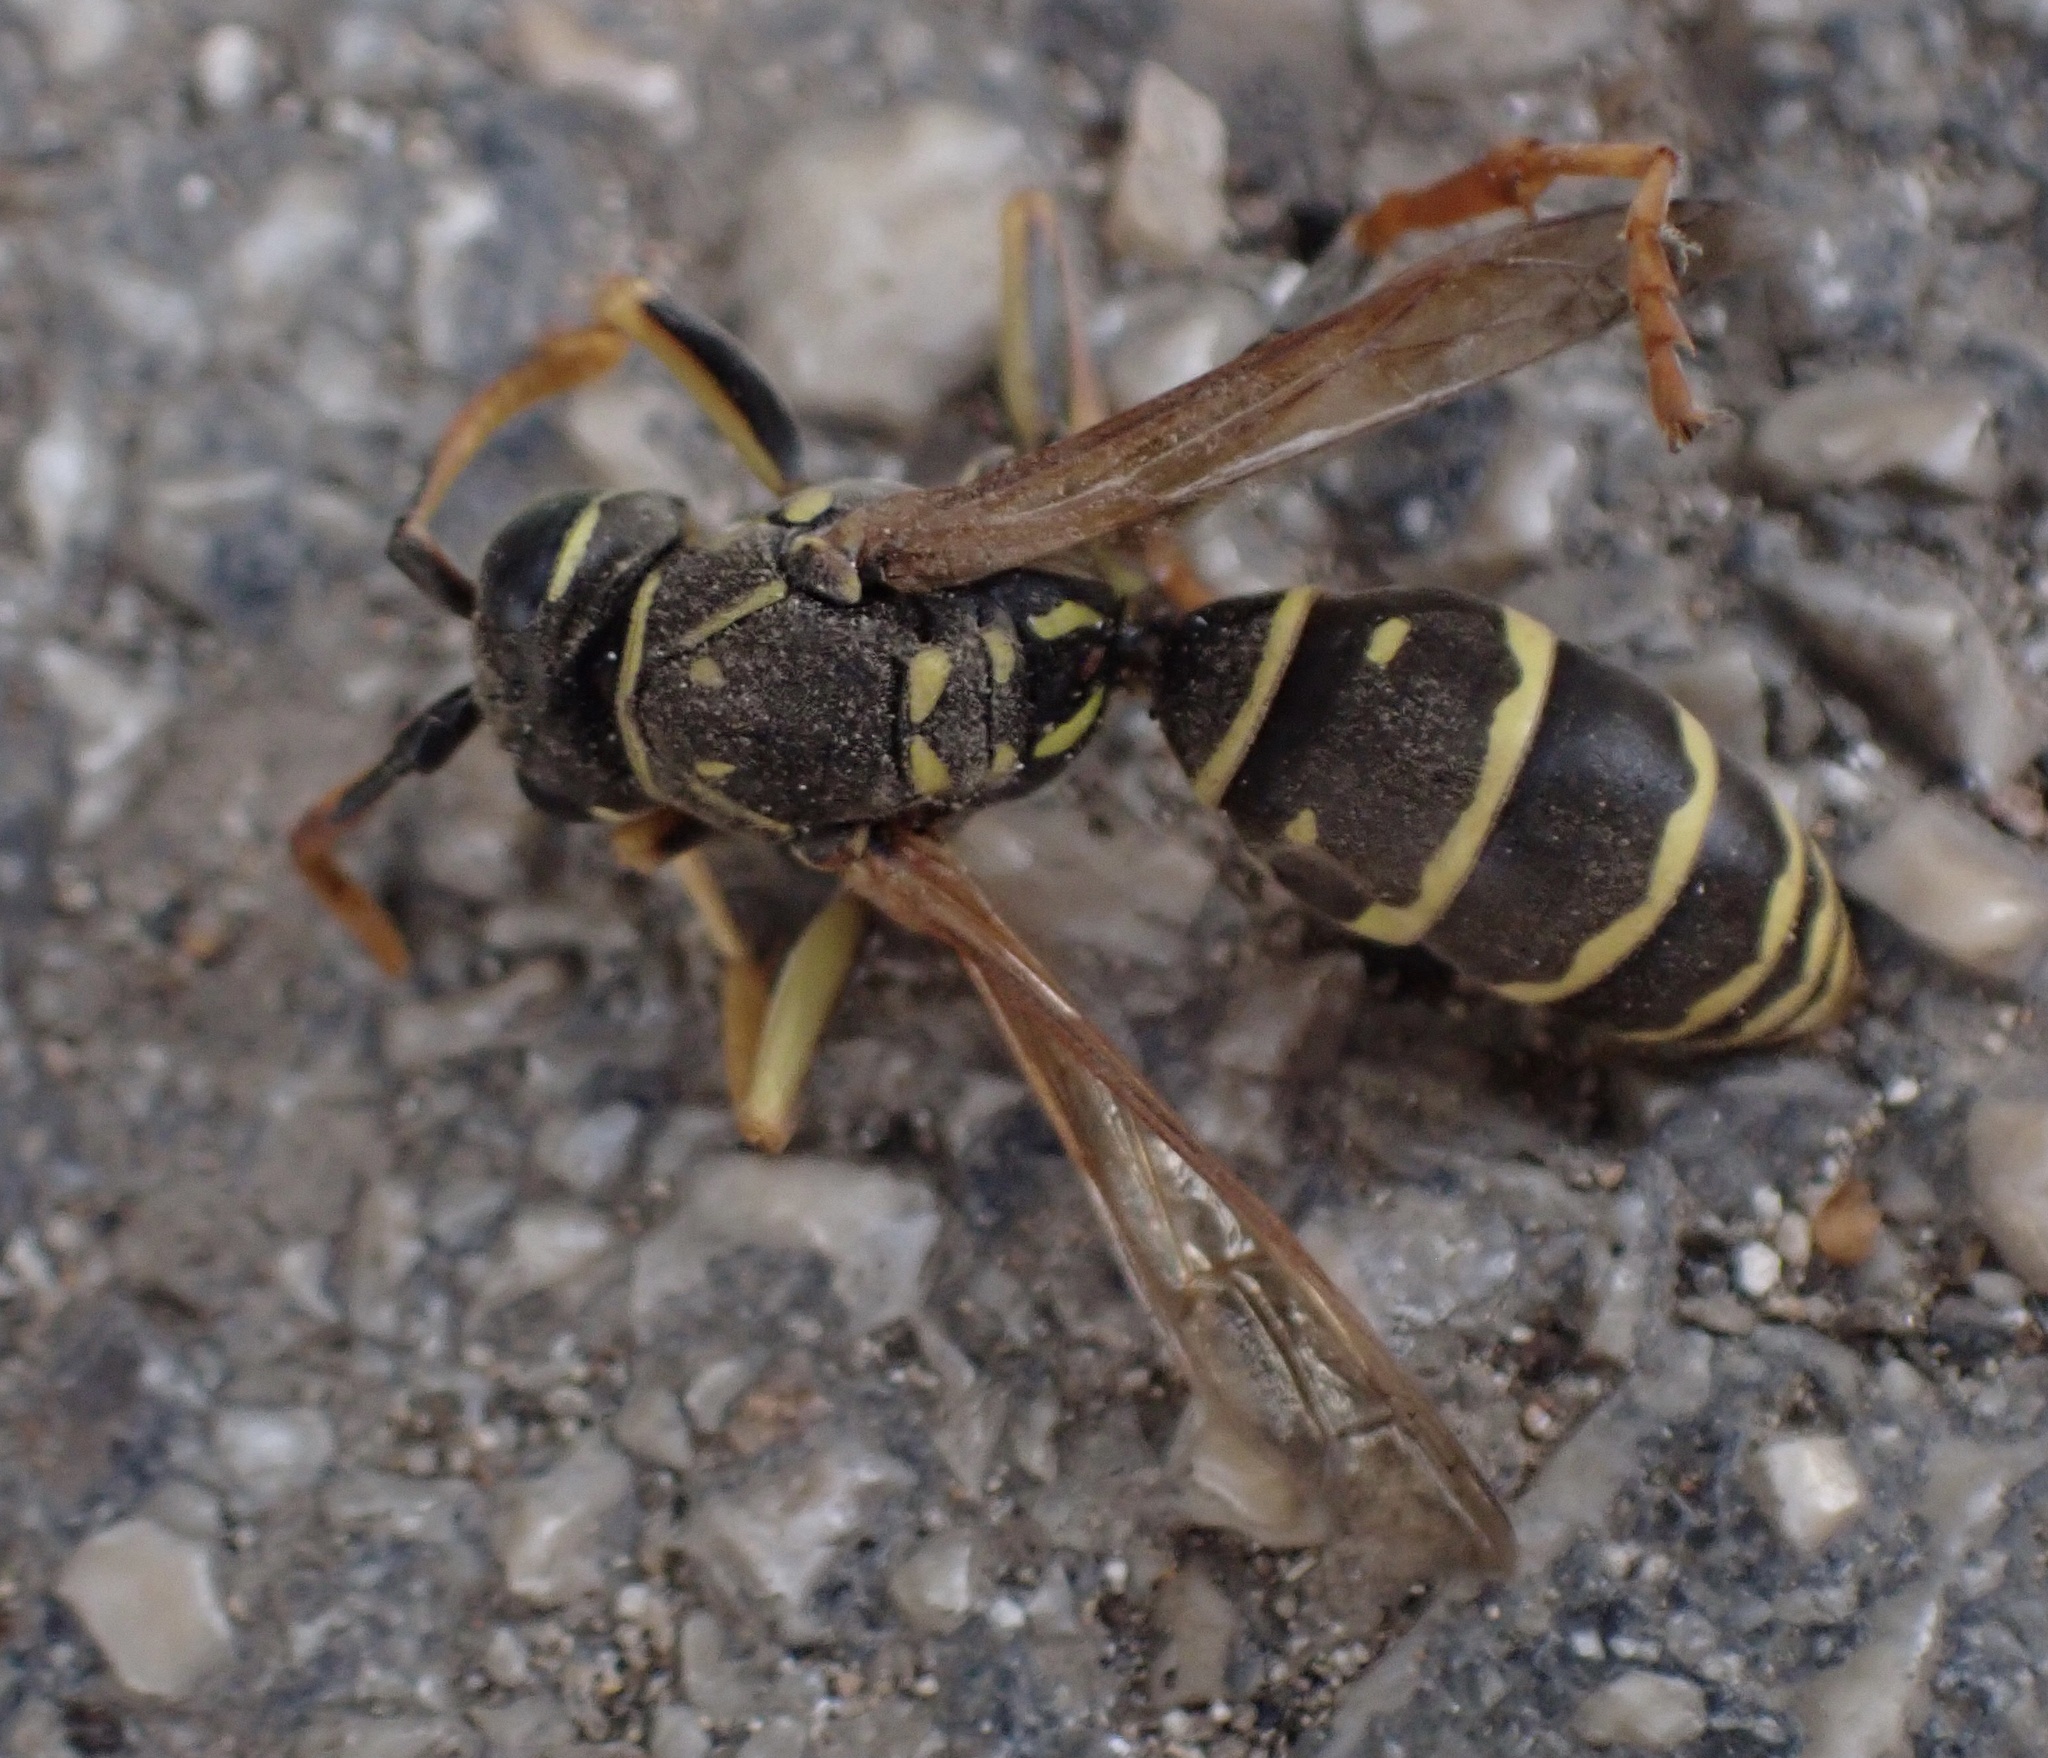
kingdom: Animalia
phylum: Arthropoda
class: Insecta
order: Hymenoptera
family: Eumenidae
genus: Polistes
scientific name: Polistes nimpha
